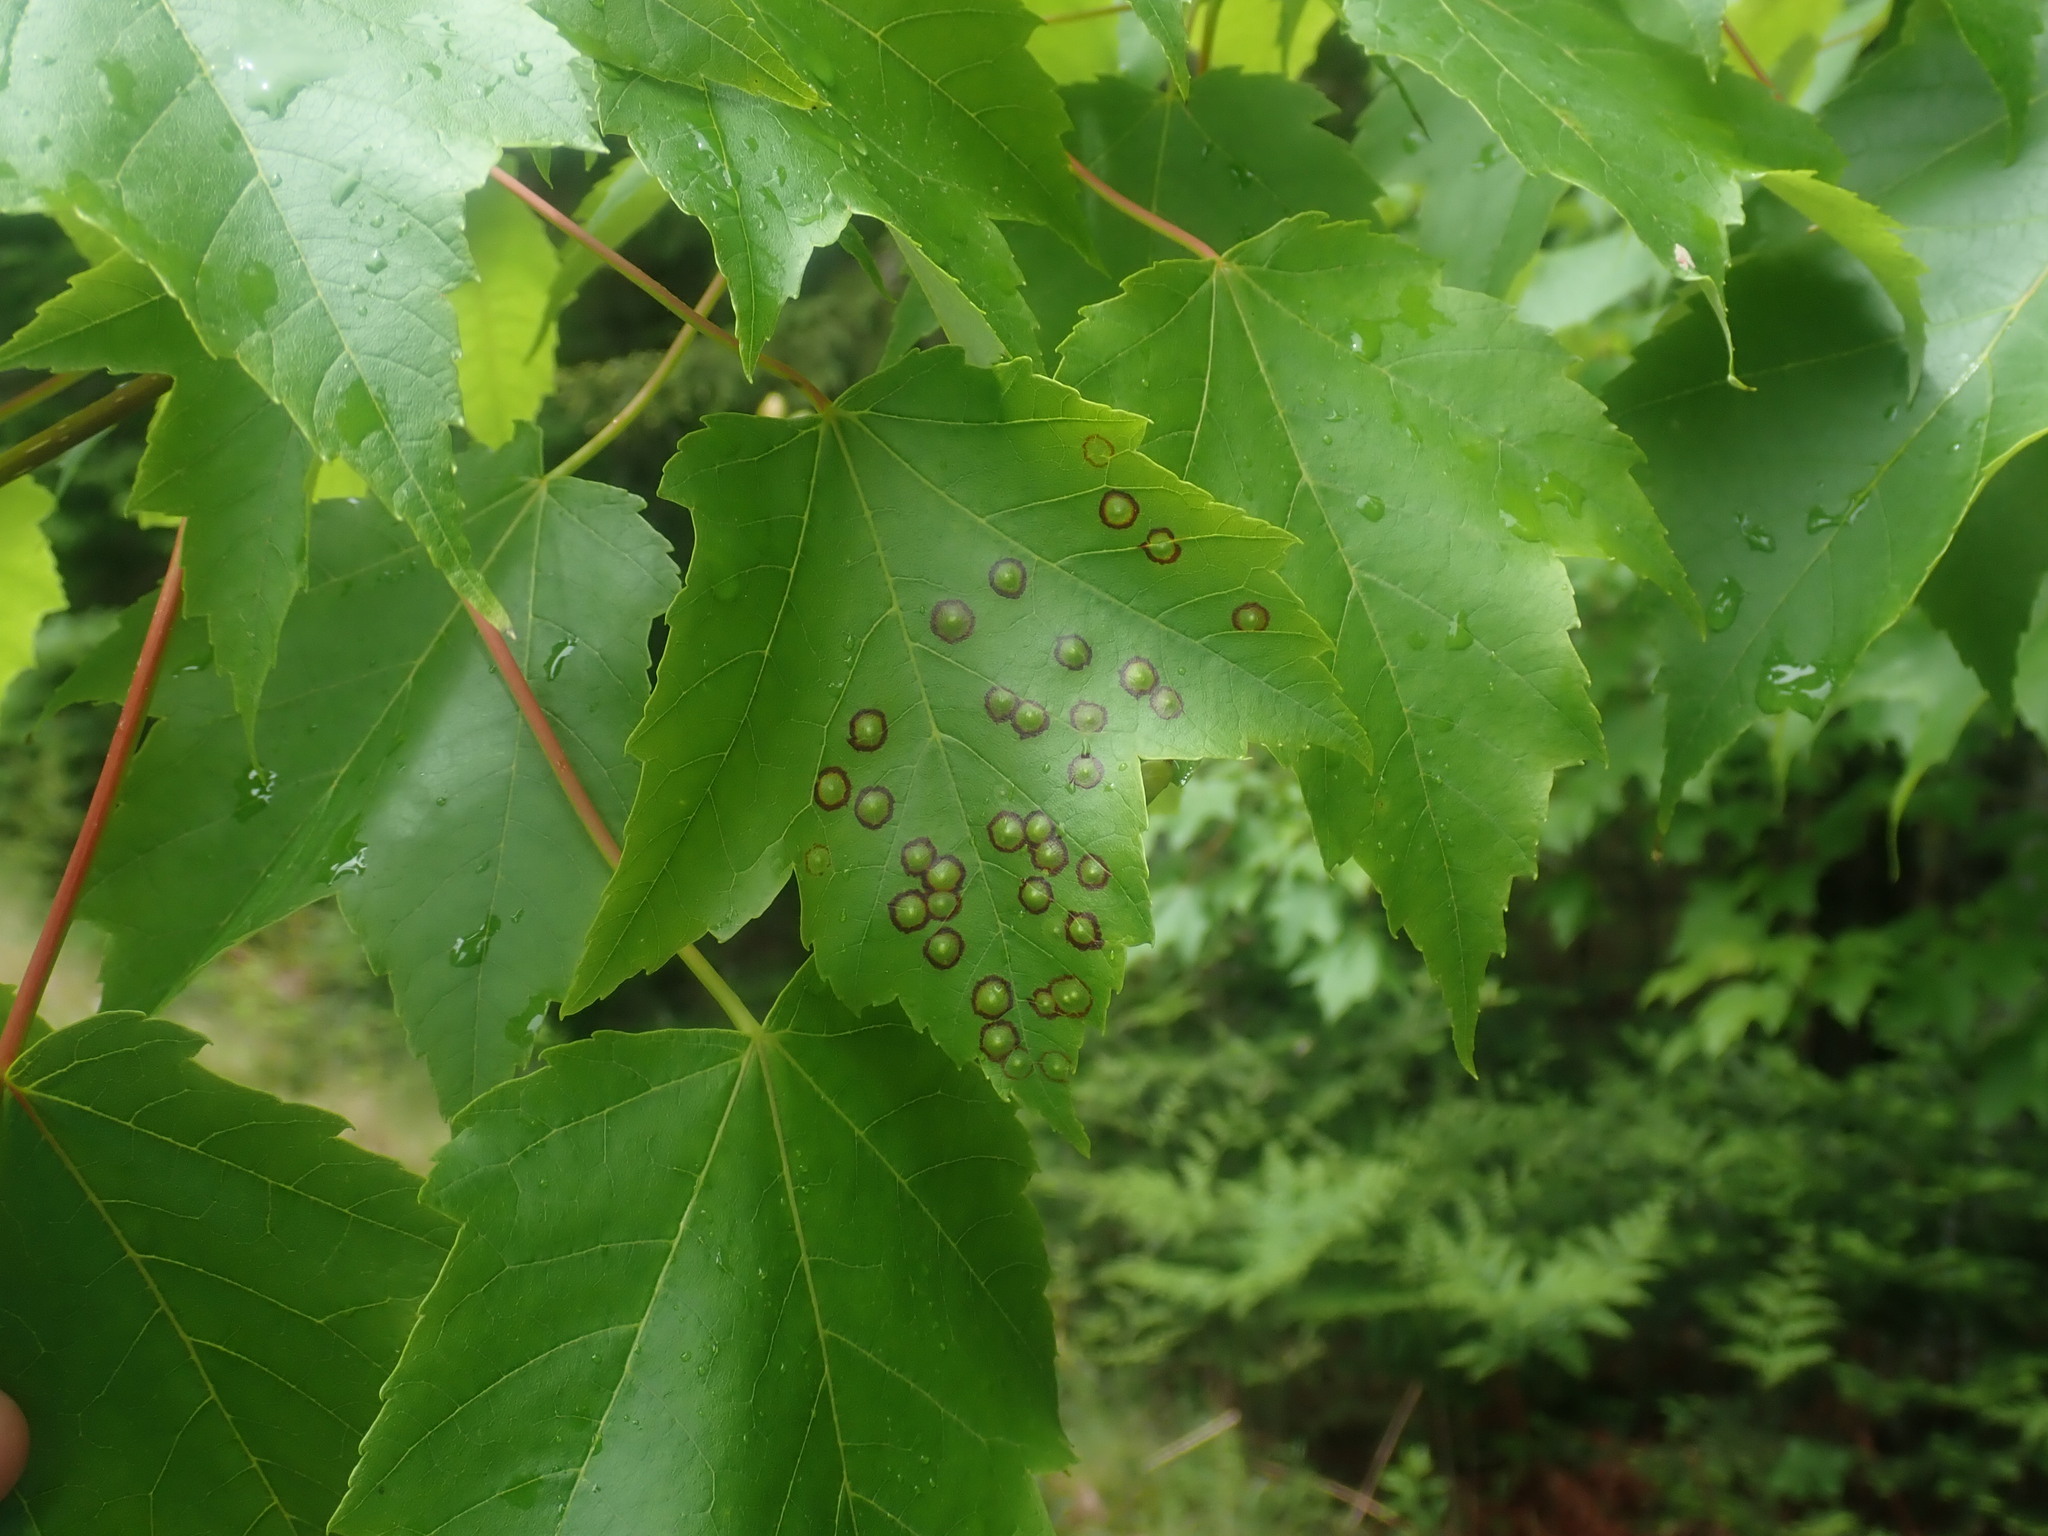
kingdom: Animalia
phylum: Arthropoda
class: Insecta
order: Diptera
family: Cecidomyiidae
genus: Acericecis
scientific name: Acericecis ocellaris
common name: Ocellate gall midge
